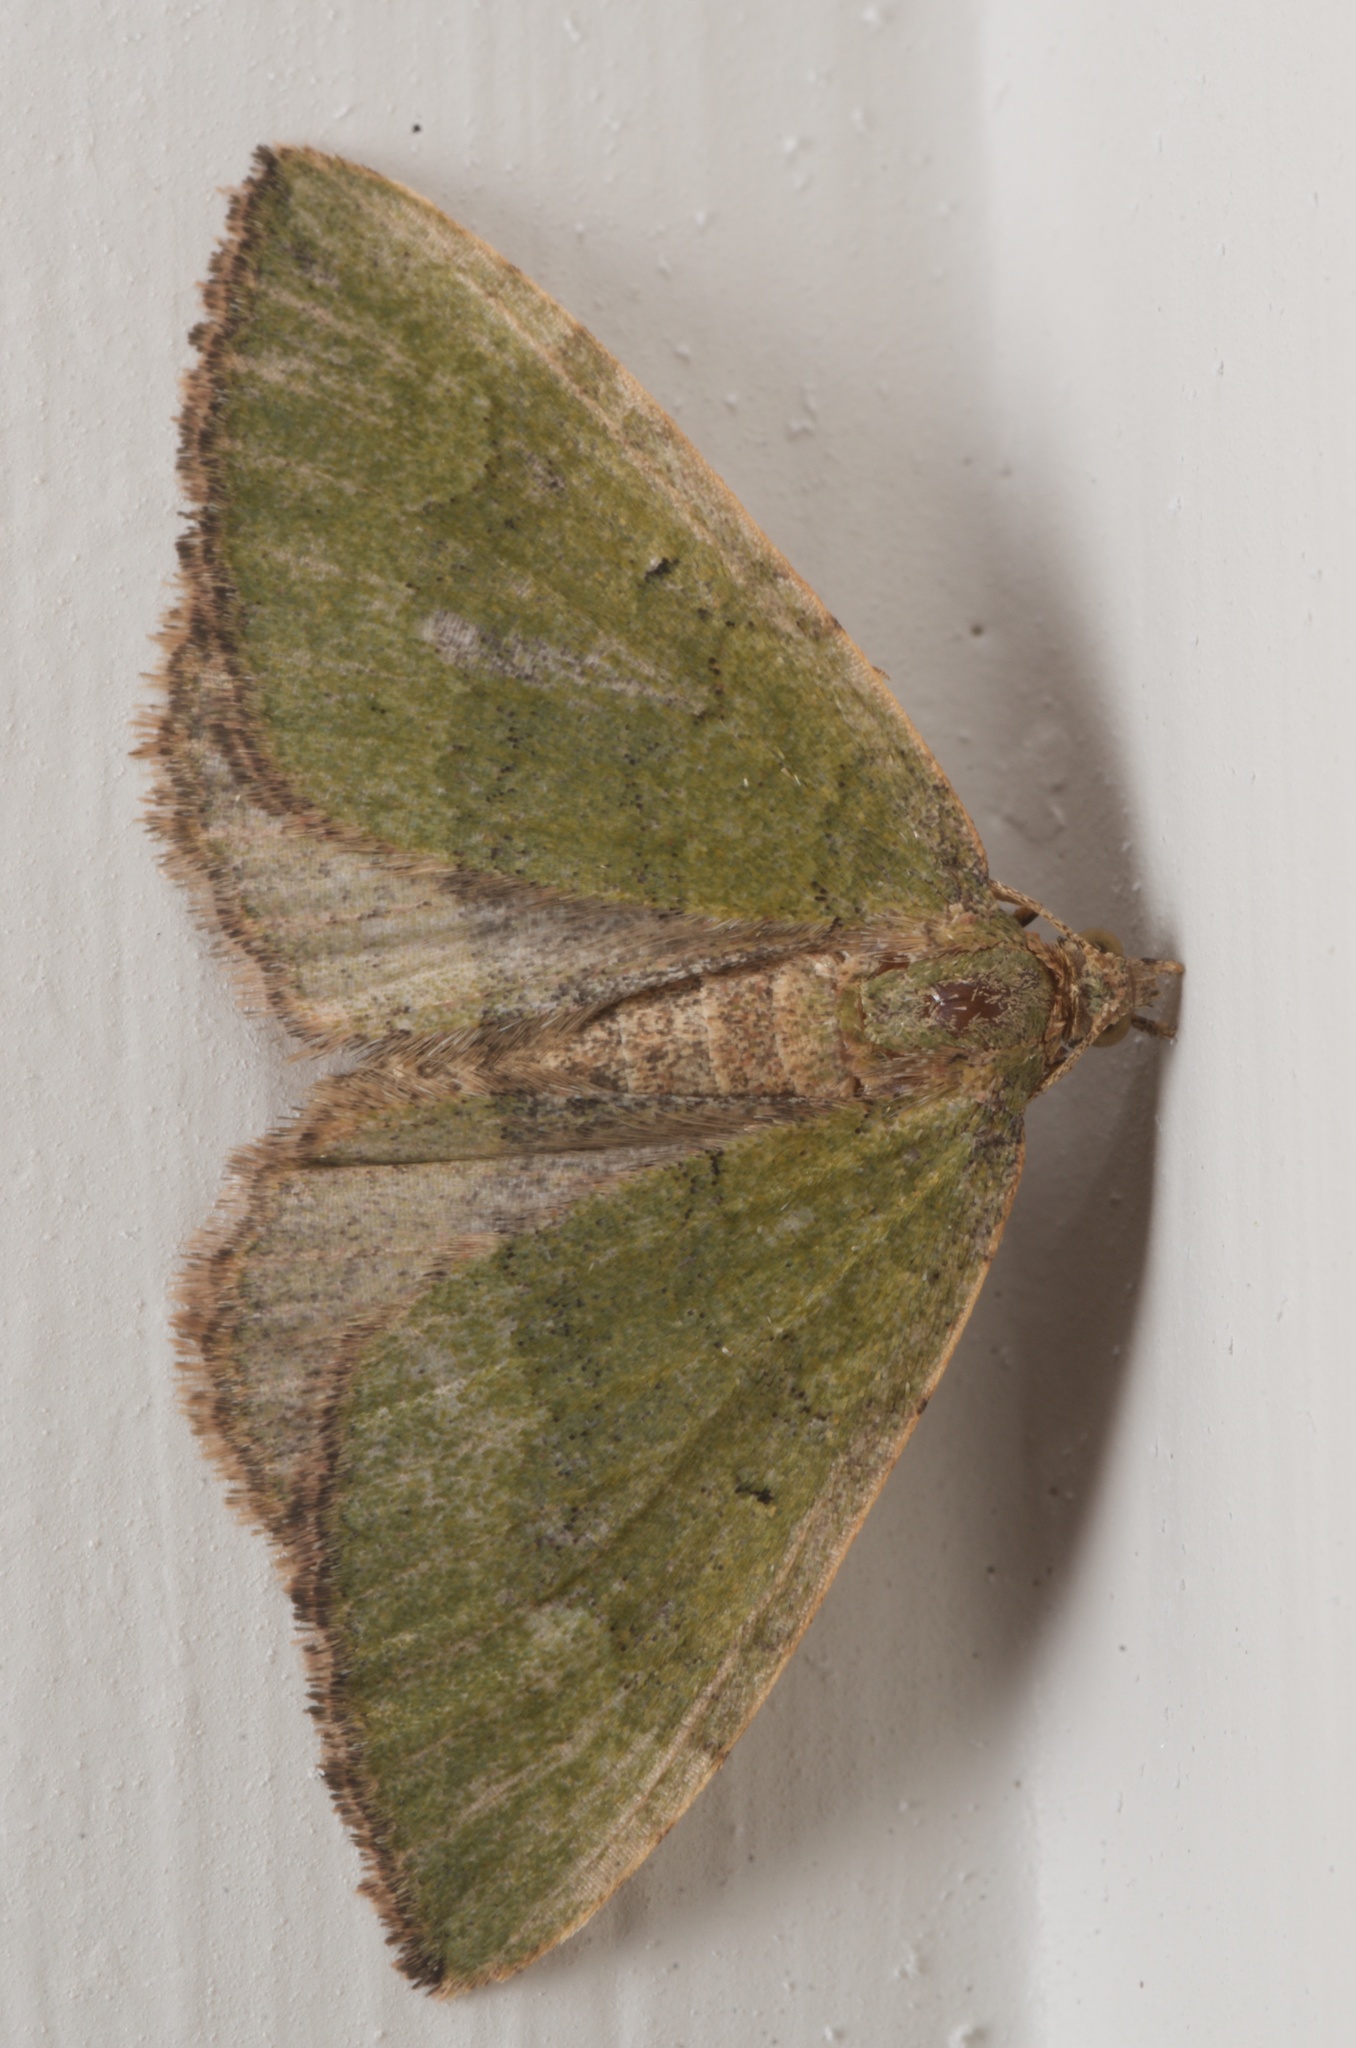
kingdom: Animalia
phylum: Arthropoda
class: Insecta
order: Lepidoptera
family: Geometridae
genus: Epyaxa
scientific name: Epyaxa rosearia
